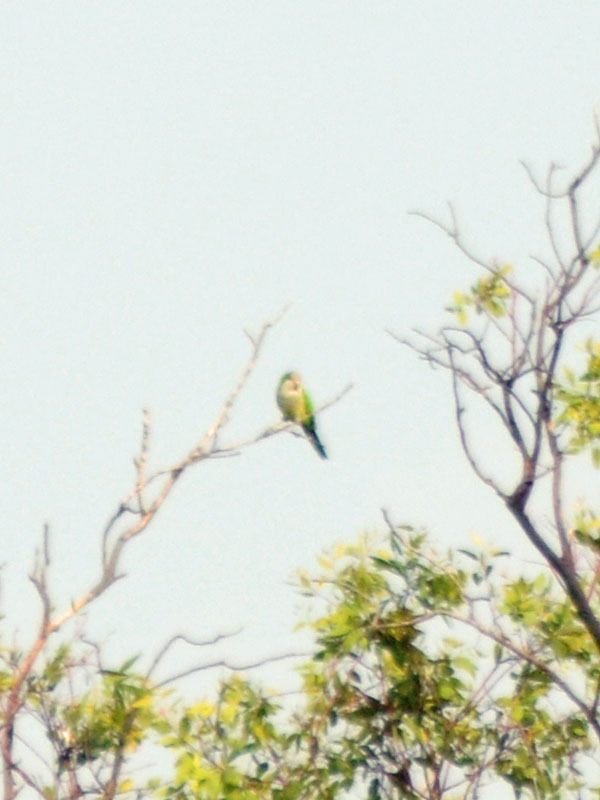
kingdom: Animalia
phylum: Chordata
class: Aves
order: Psittaciformes
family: Psittacidae
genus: Myiopsitta
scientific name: Myiopsitta monachus
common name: Monk parakeet
